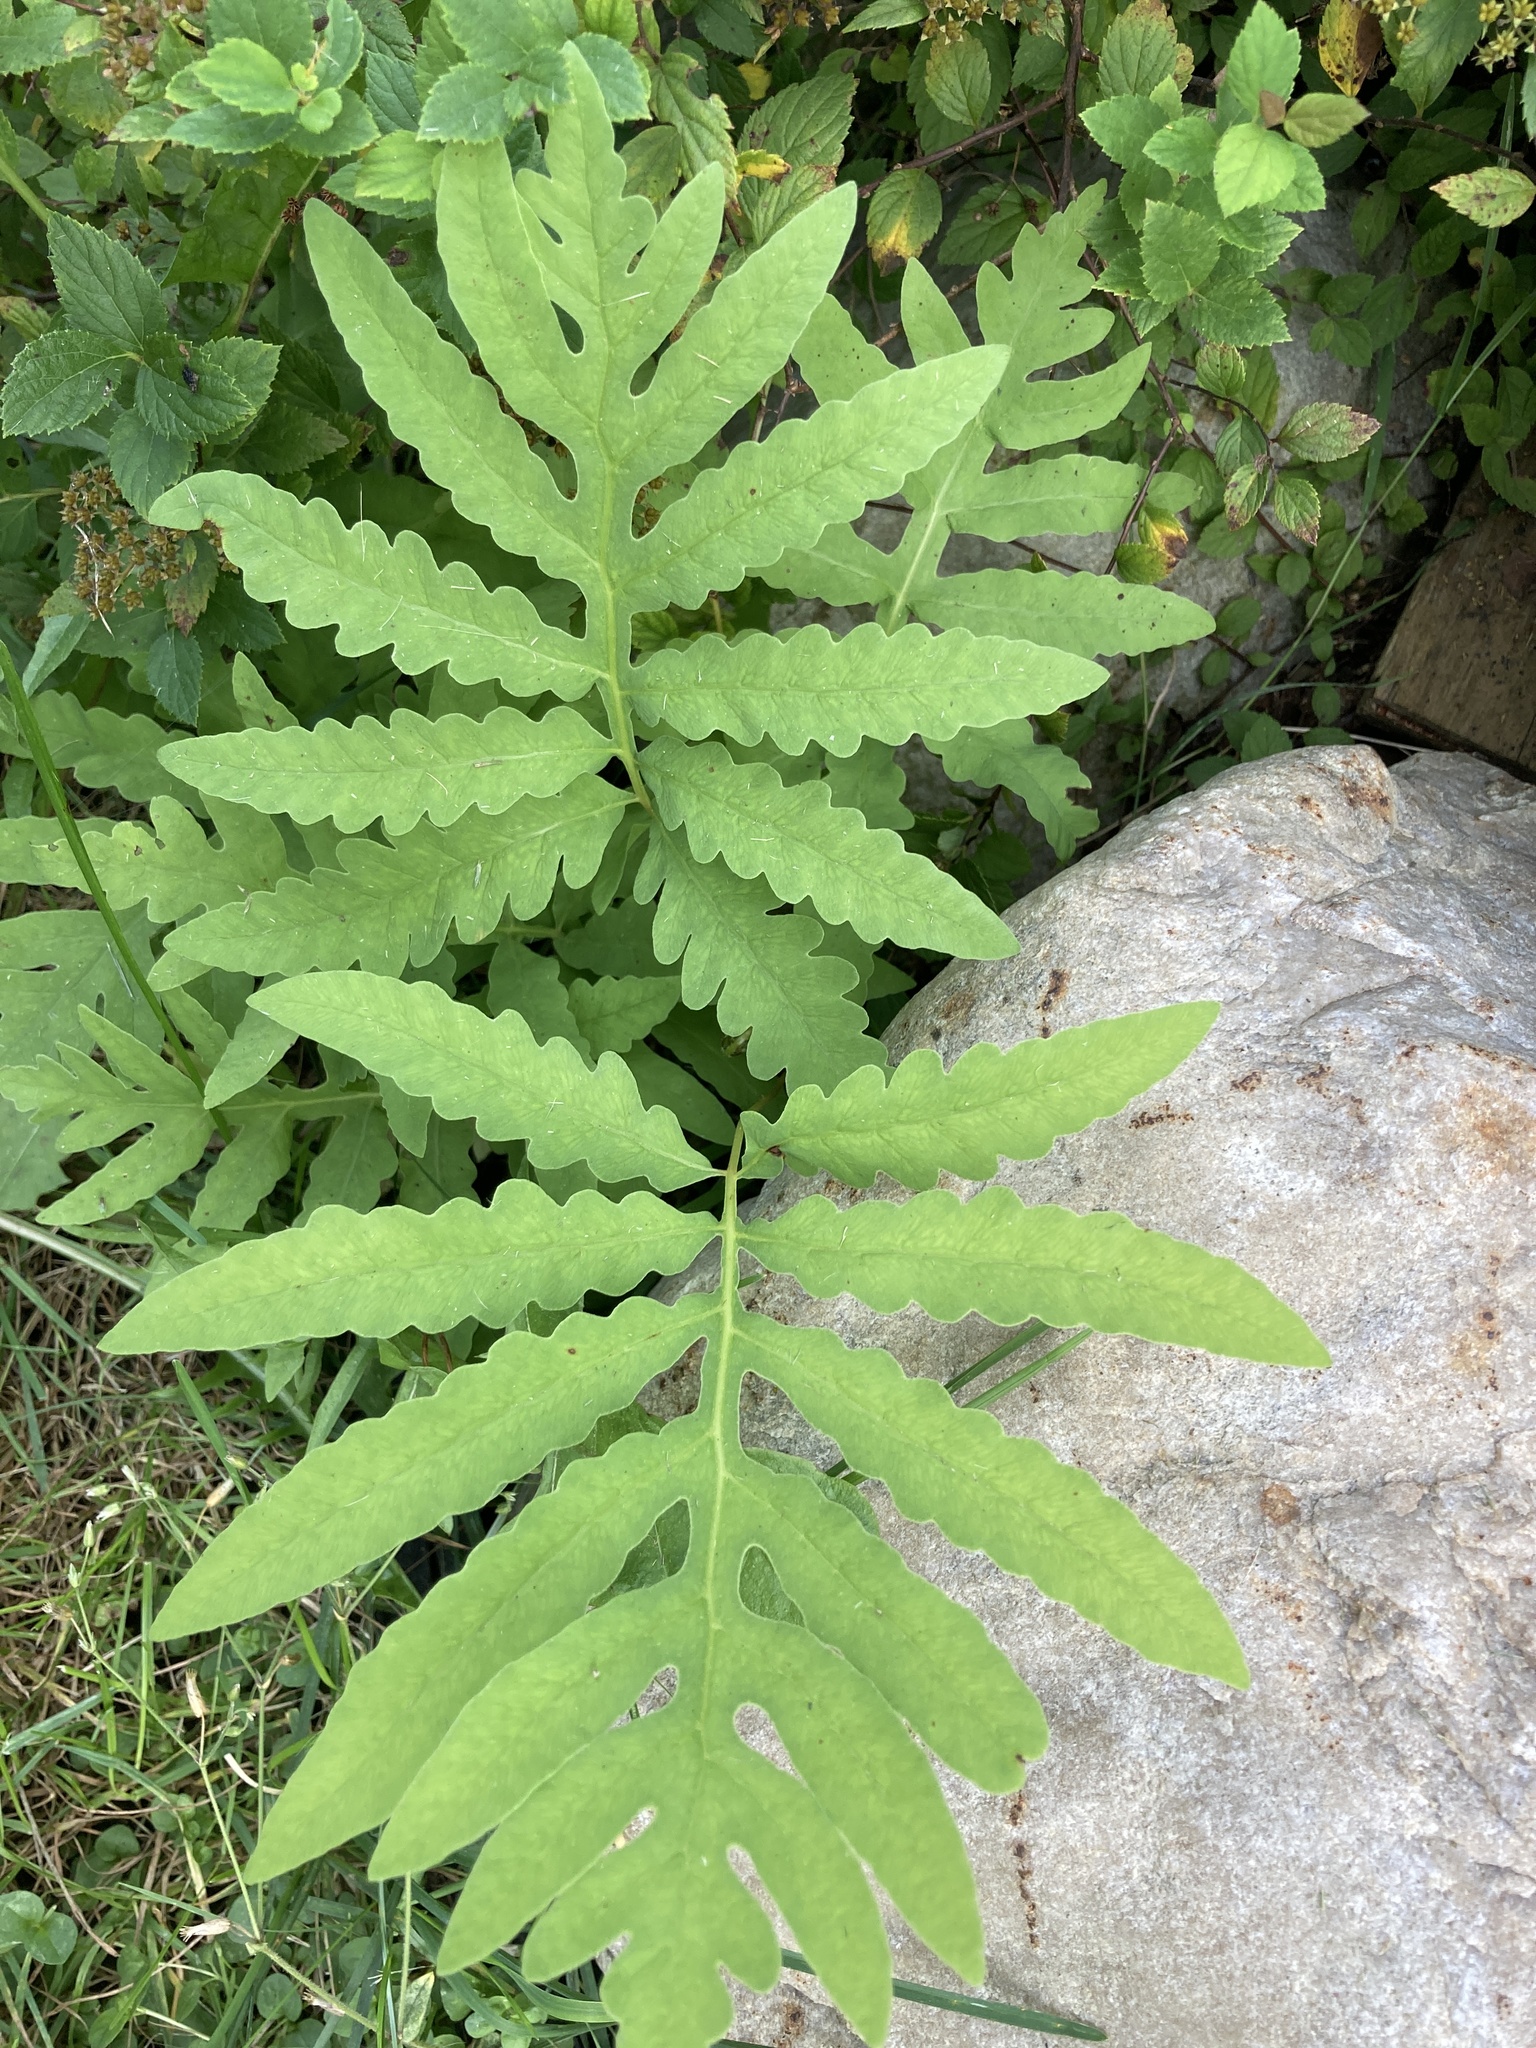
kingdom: Plantae
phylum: Tracheophyta
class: Polypodiopsida
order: Polypodiales
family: Onocleaceae
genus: Onoclea
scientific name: Onoclea sensibilis
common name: Sensitive fern
